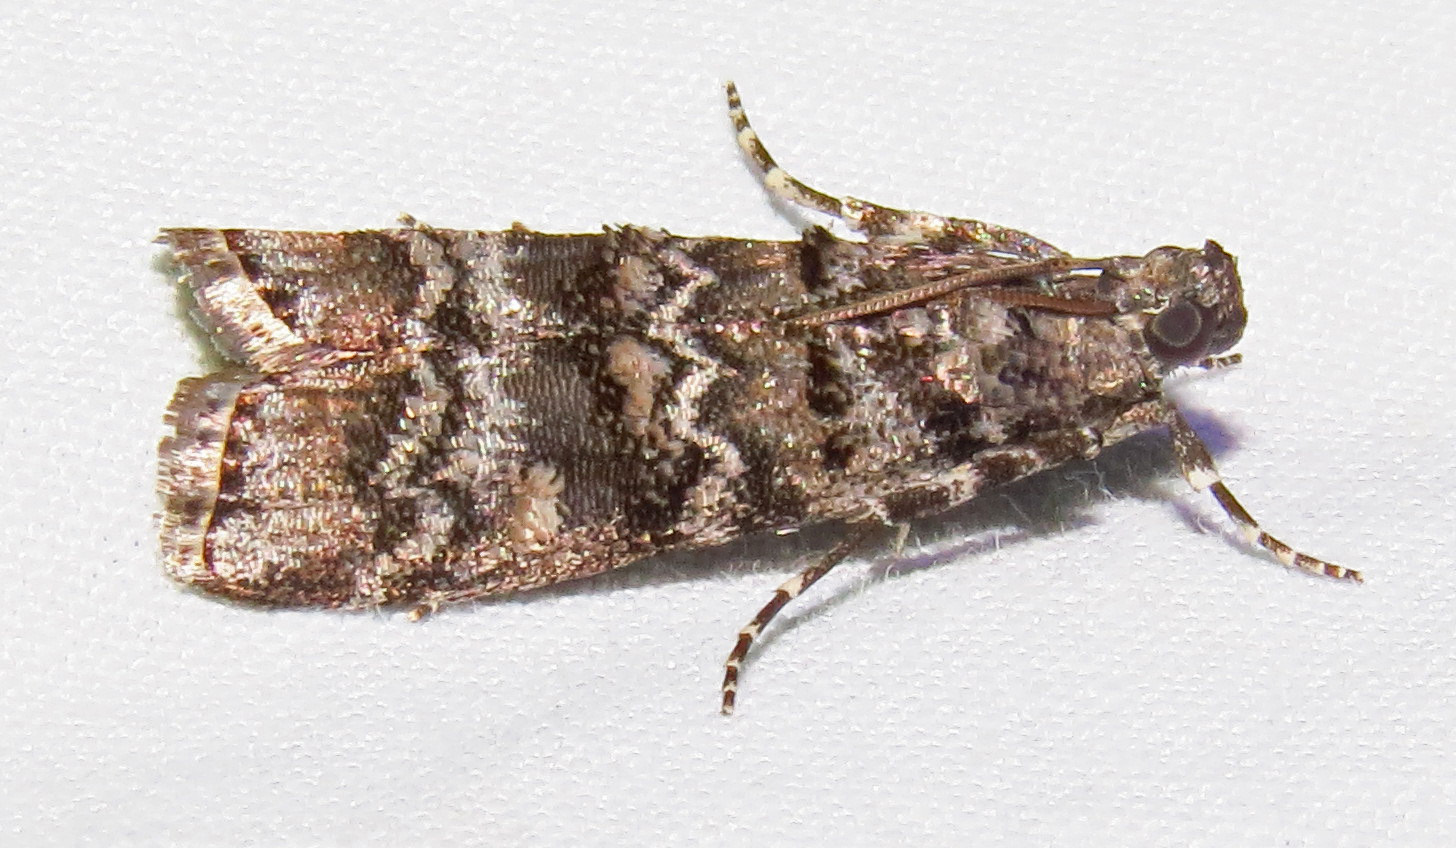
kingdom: Animalia
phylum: Arthropoda
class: Insecta
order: Lepidoptera
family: Pyralidae
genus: Dioryctria
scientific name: Dioryctria amatella
